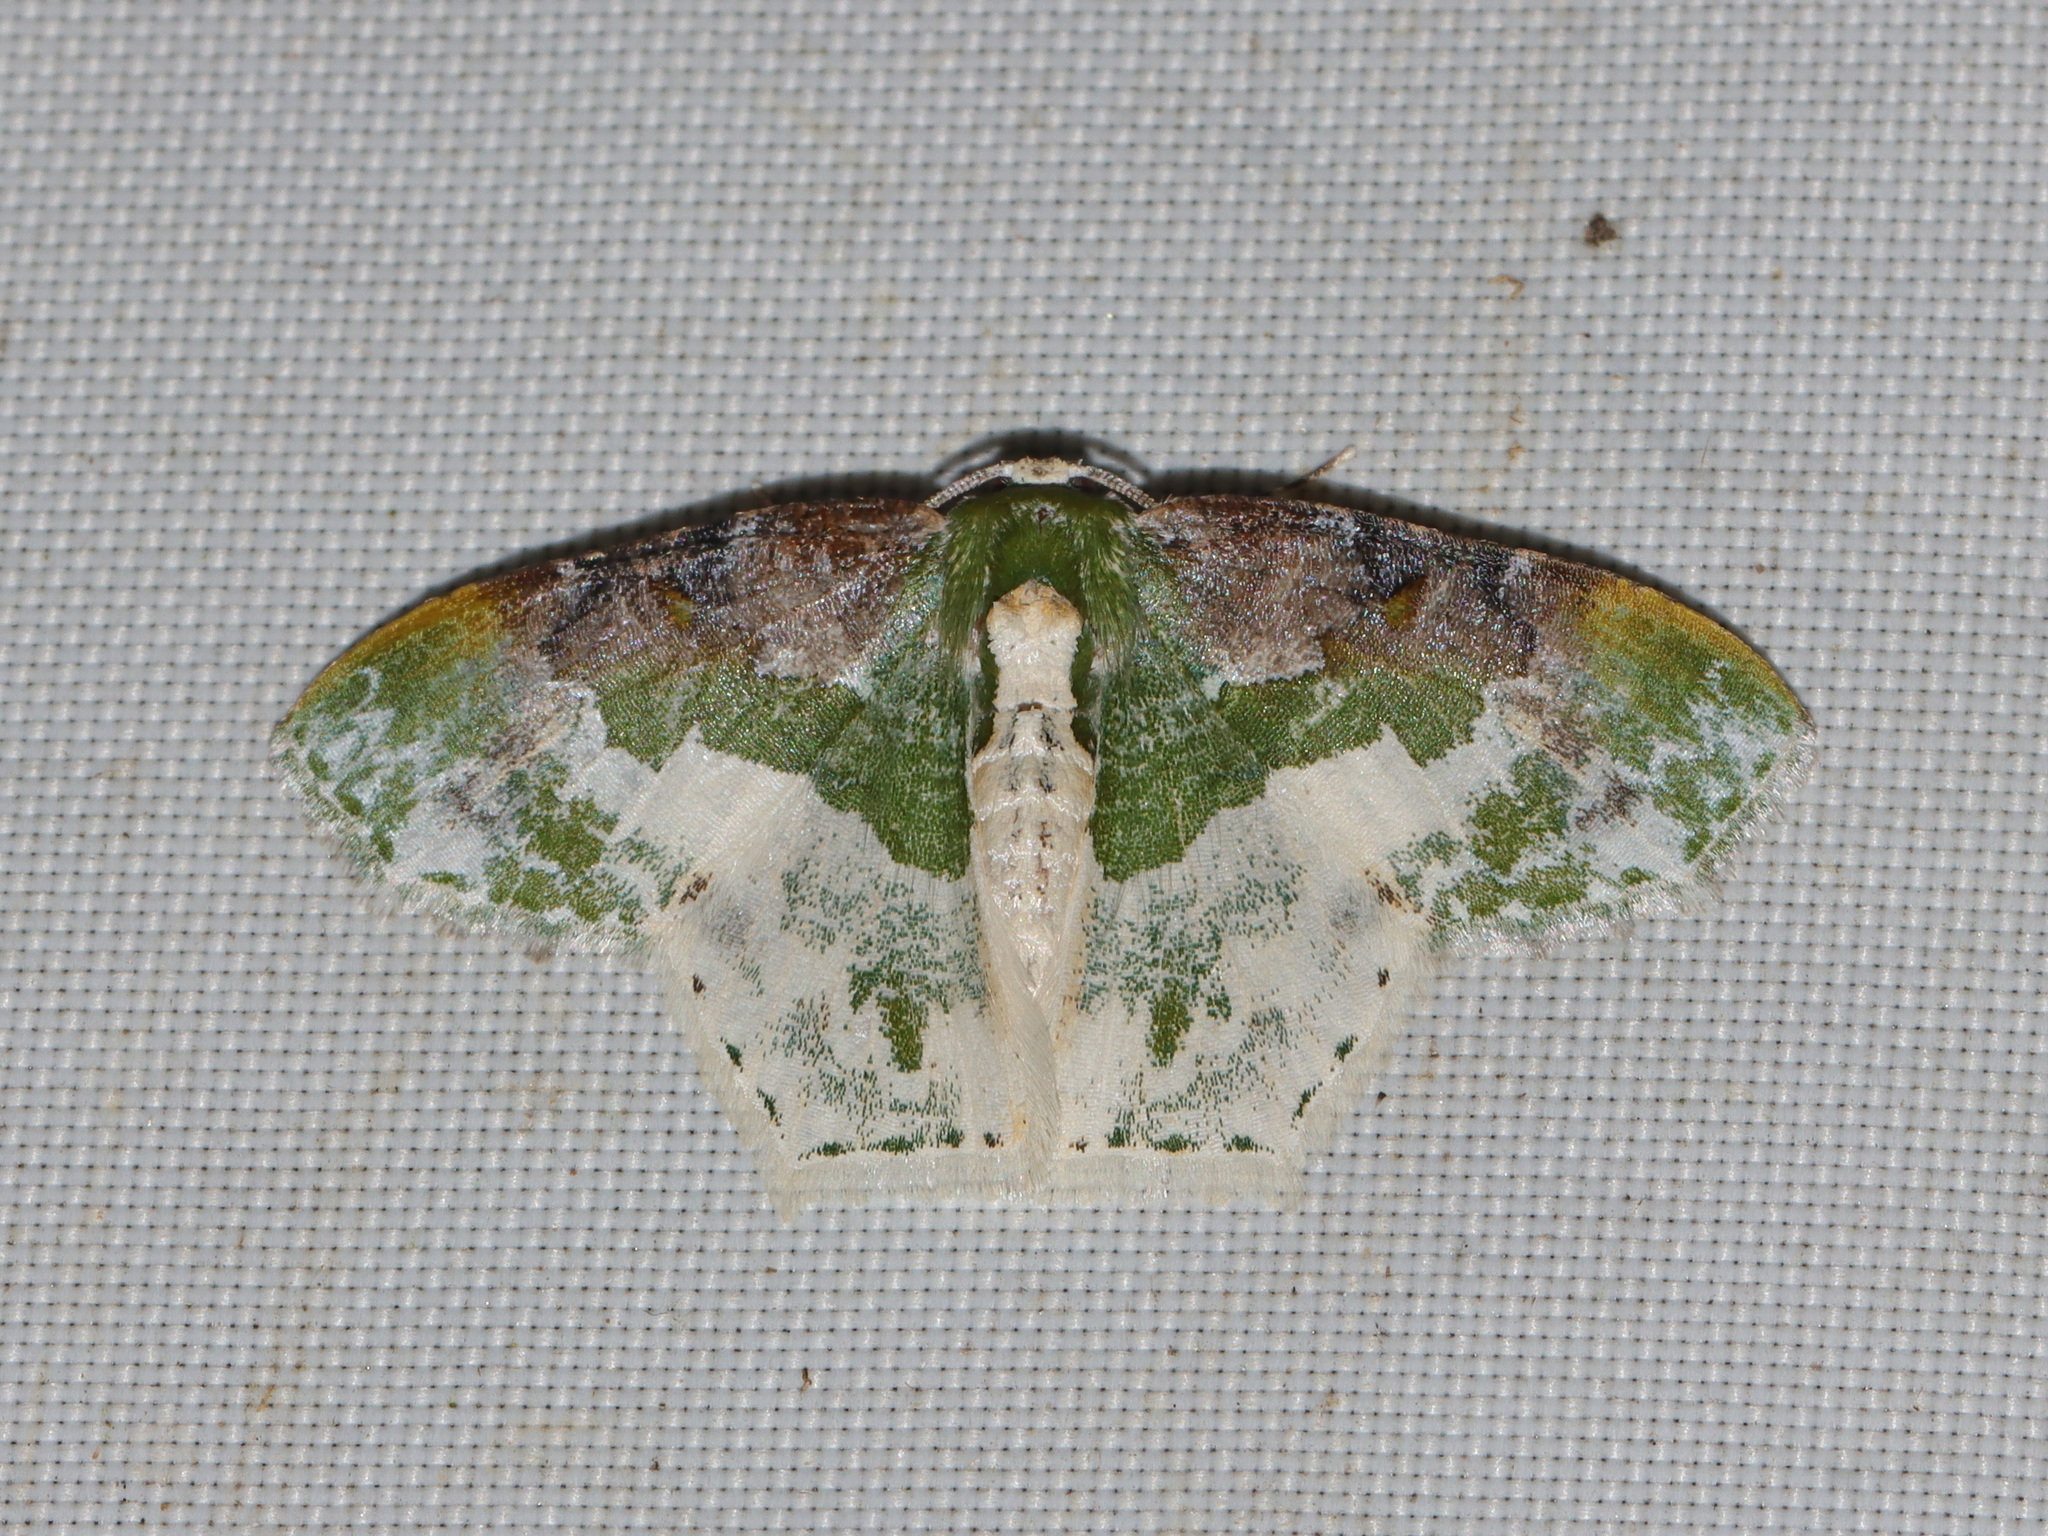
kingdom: Animalia
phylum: Arthropoda
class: Insecta
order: Lepidoptera
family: Geometridae
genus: Eucyclodes
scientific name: Eucyclodes semialba
